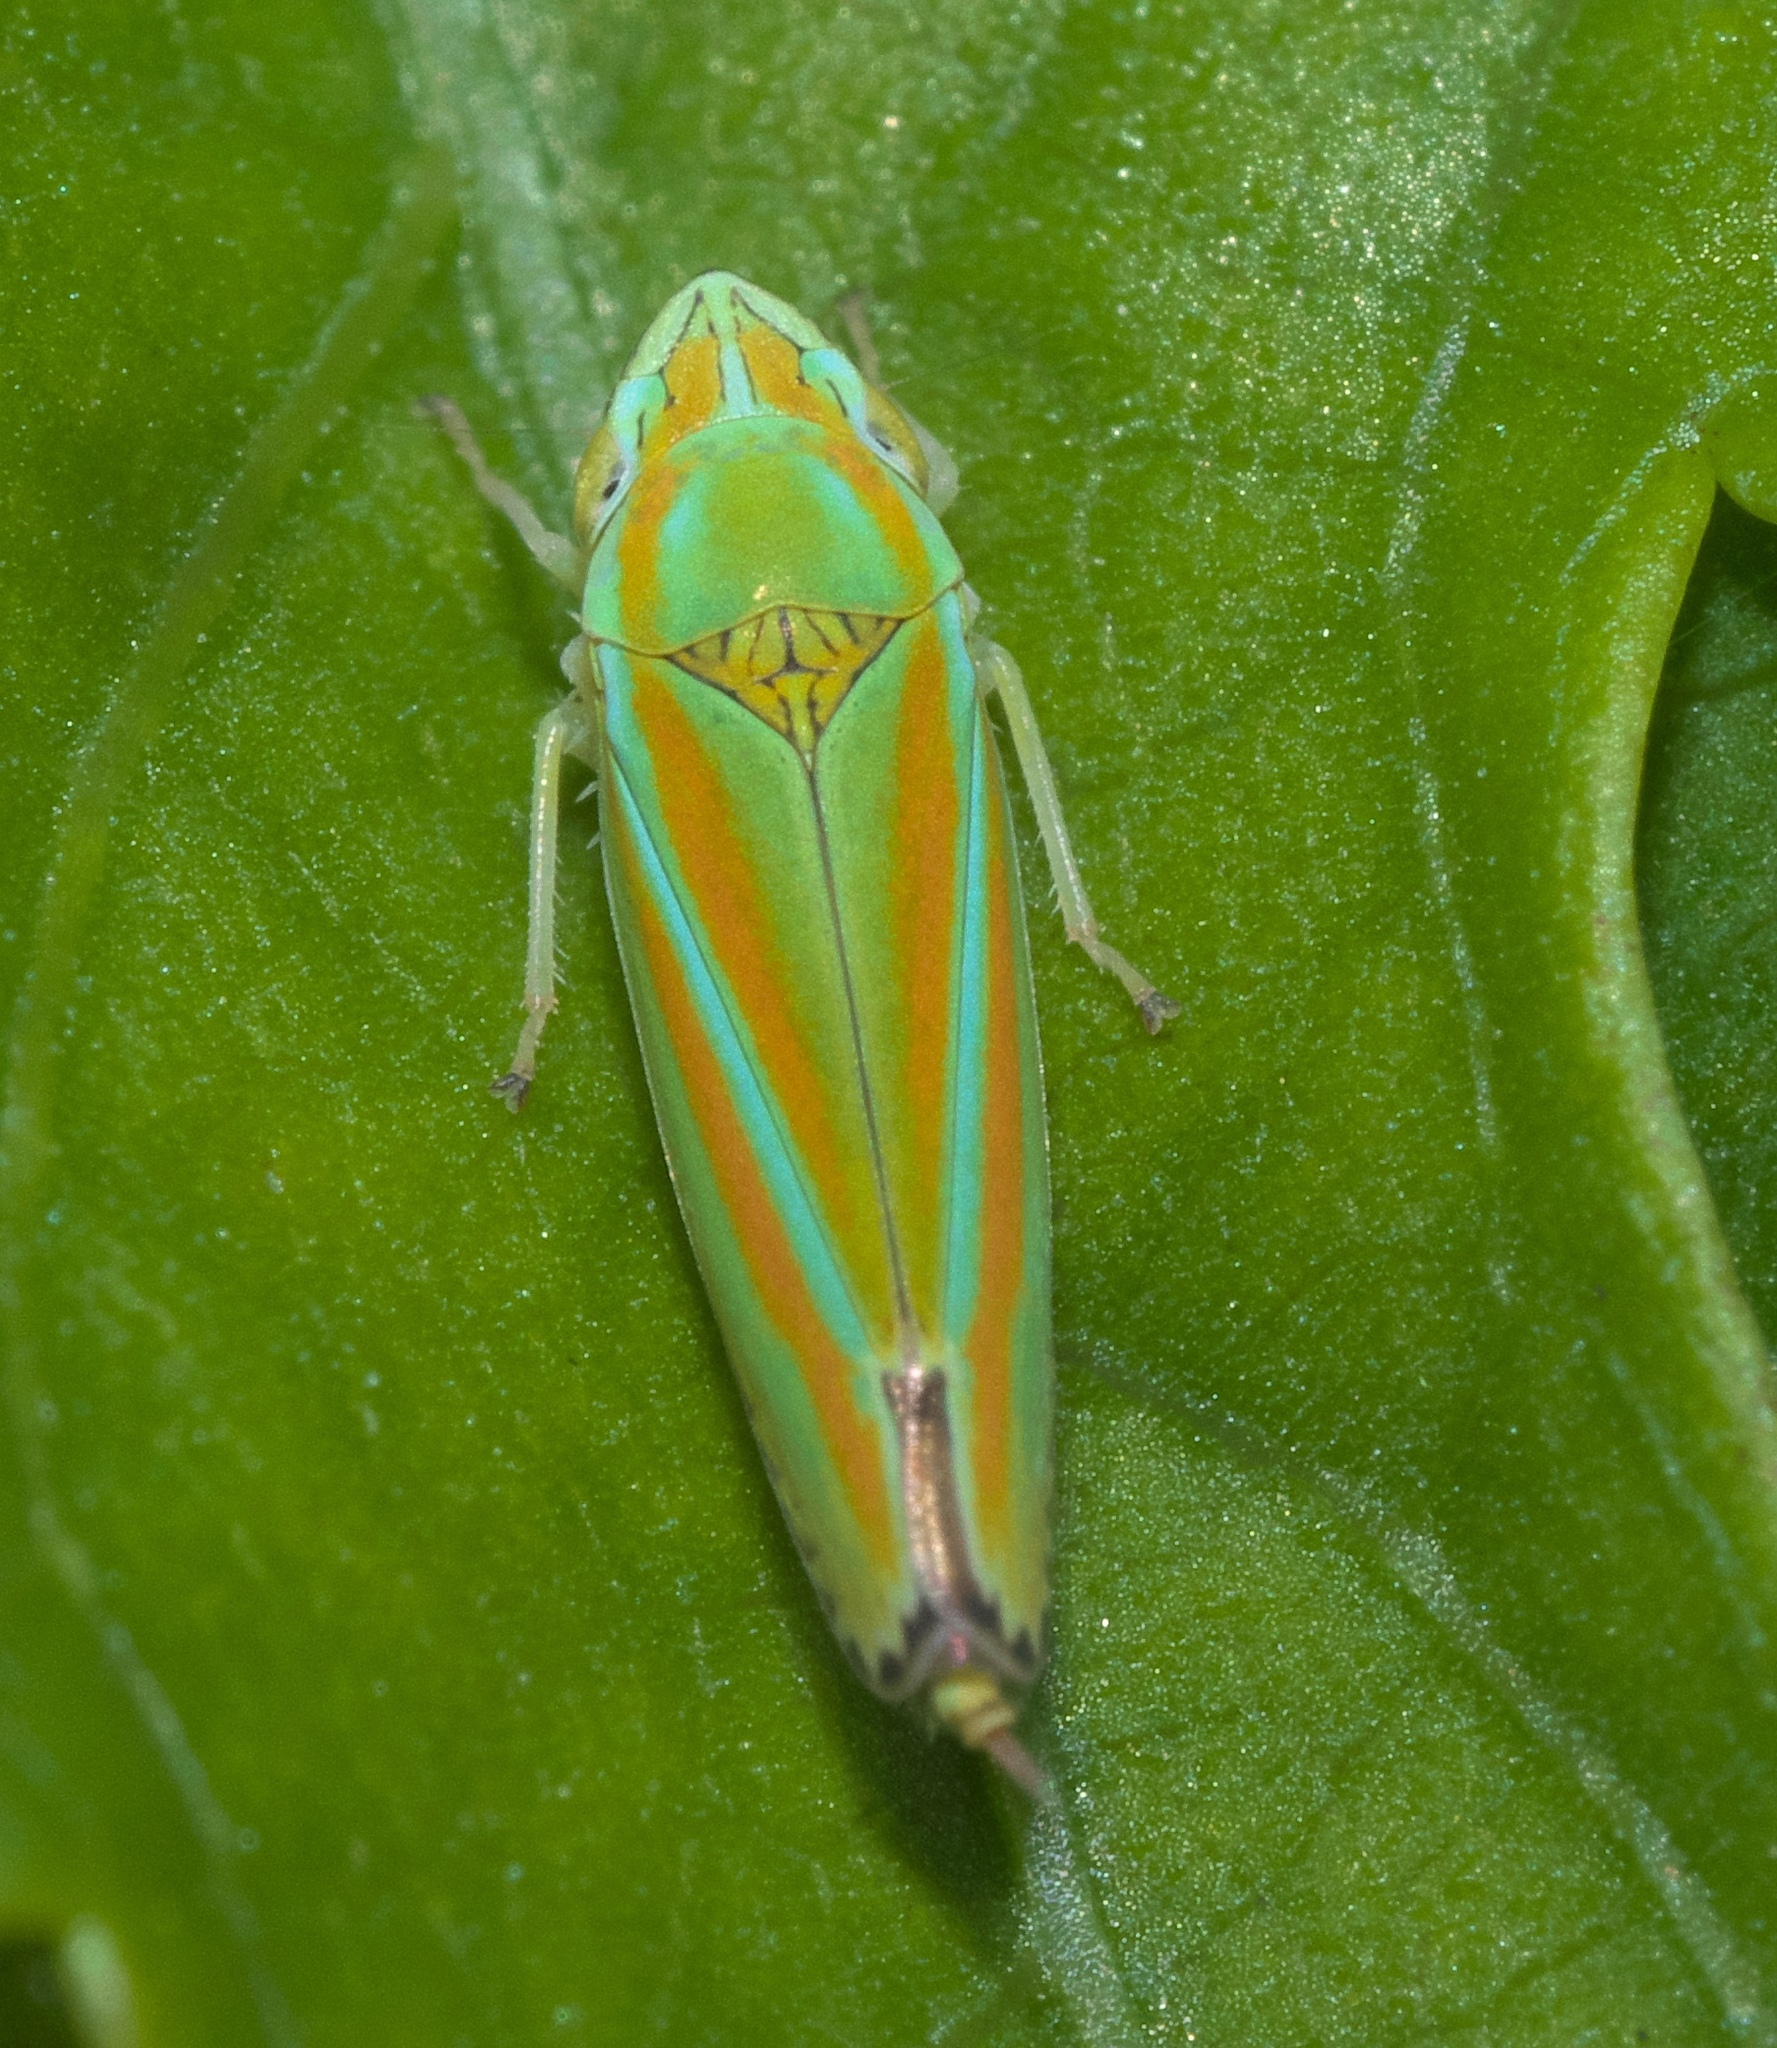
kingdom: Animalia
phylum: Arthropoda
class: Insecta
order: Hemiptera
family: Cicadellidae
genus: Graphocephala
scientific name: Graphocephala versuta
